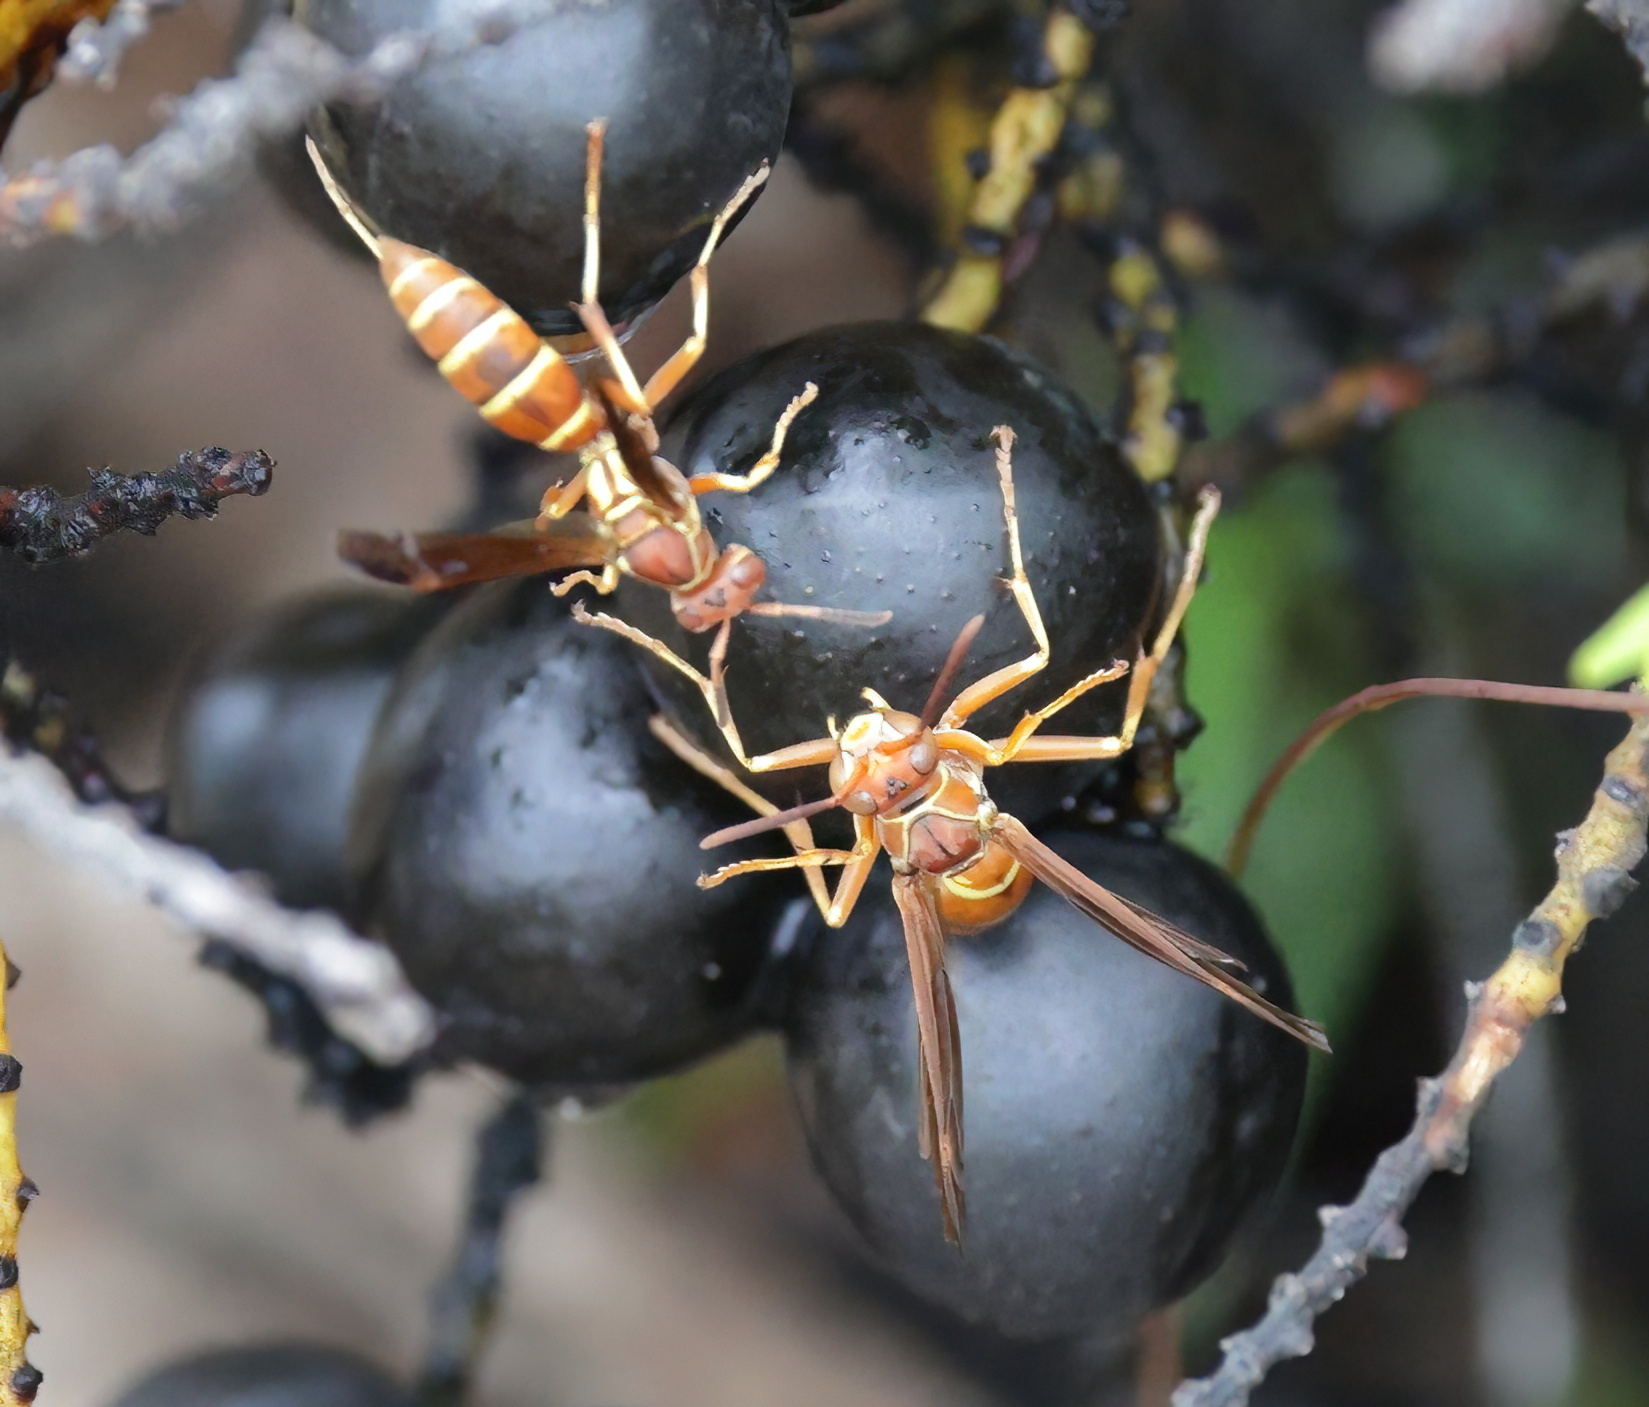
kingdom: Animalia
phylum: Arthropoda
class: Insecta
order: Hymenoptera
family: Eumenidae
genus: Polistes
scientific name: Polistes bellicosus
